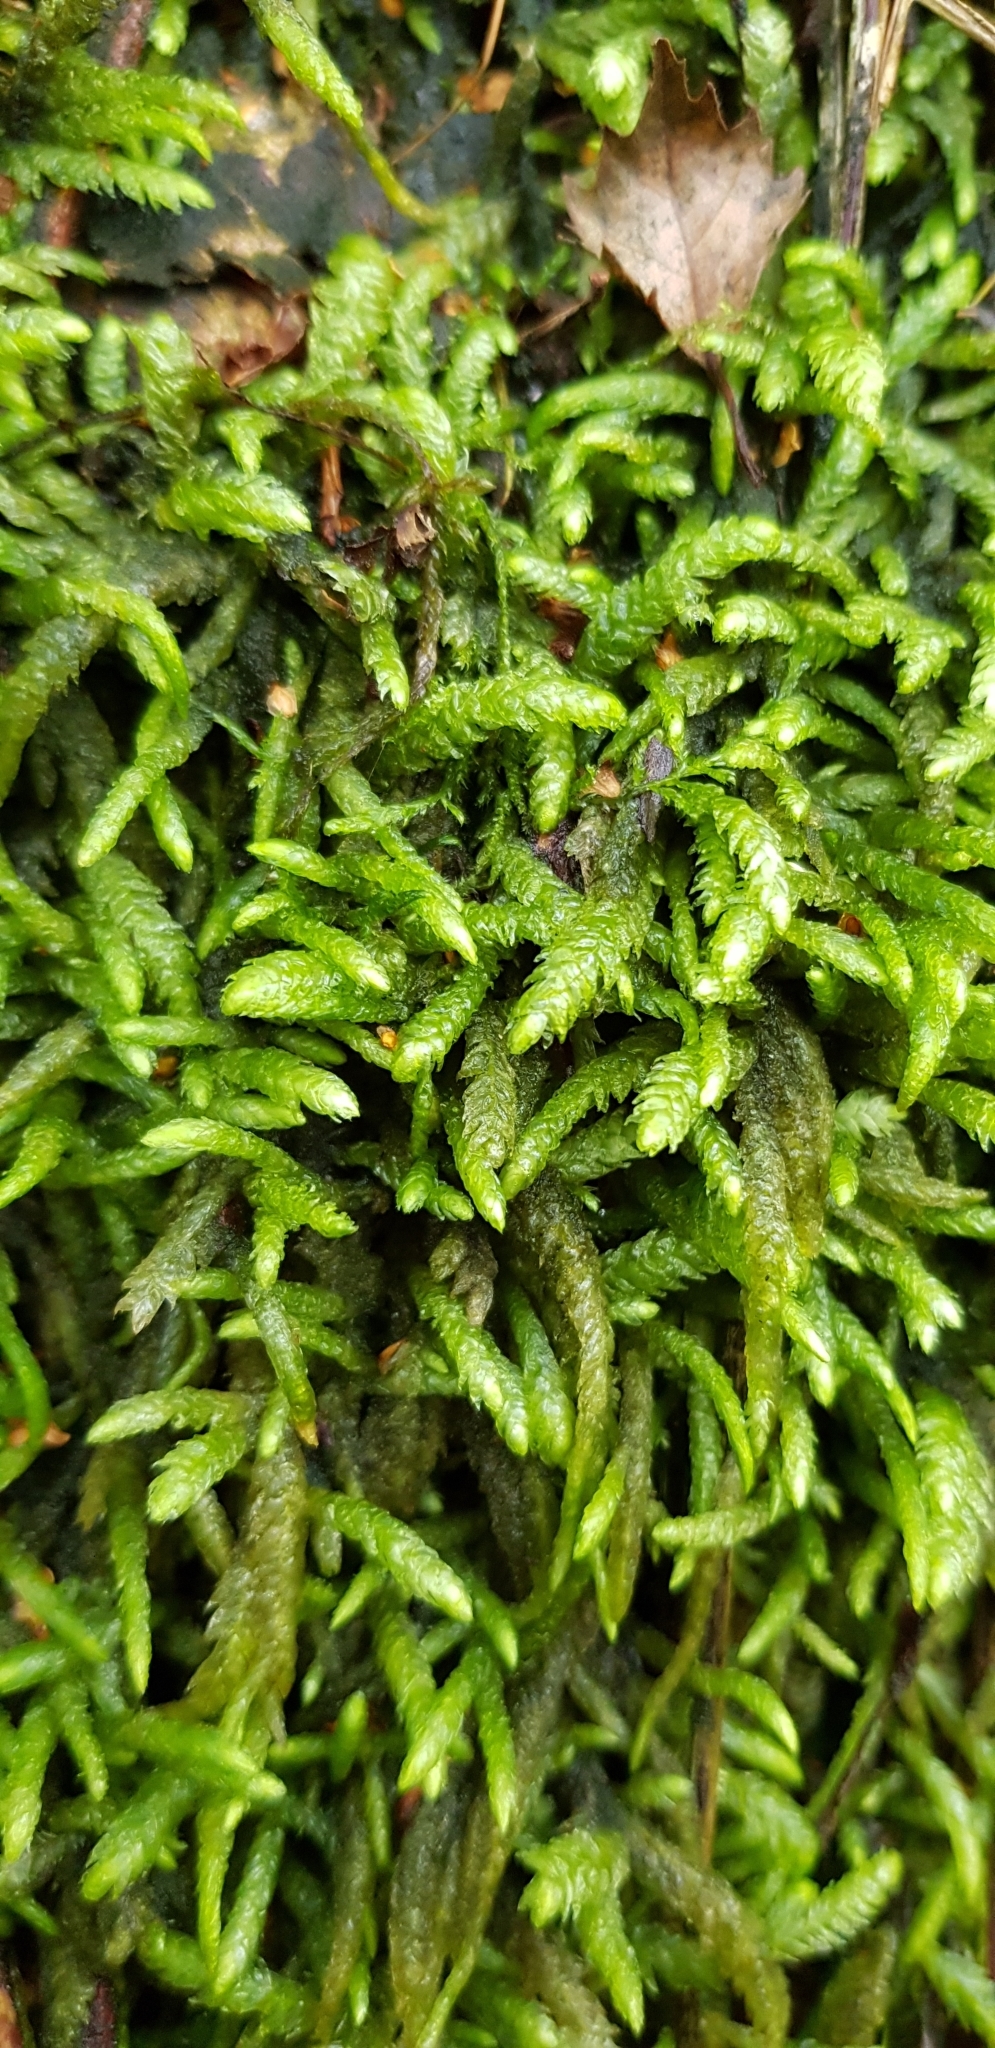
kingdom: Plantae
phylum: Bryophyta
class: Bryopsida
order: Hypnales
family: Plagiotheciaceae
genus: Plagiothecium
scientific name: Plagiothecium undulatum
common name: Waved silk-moss
